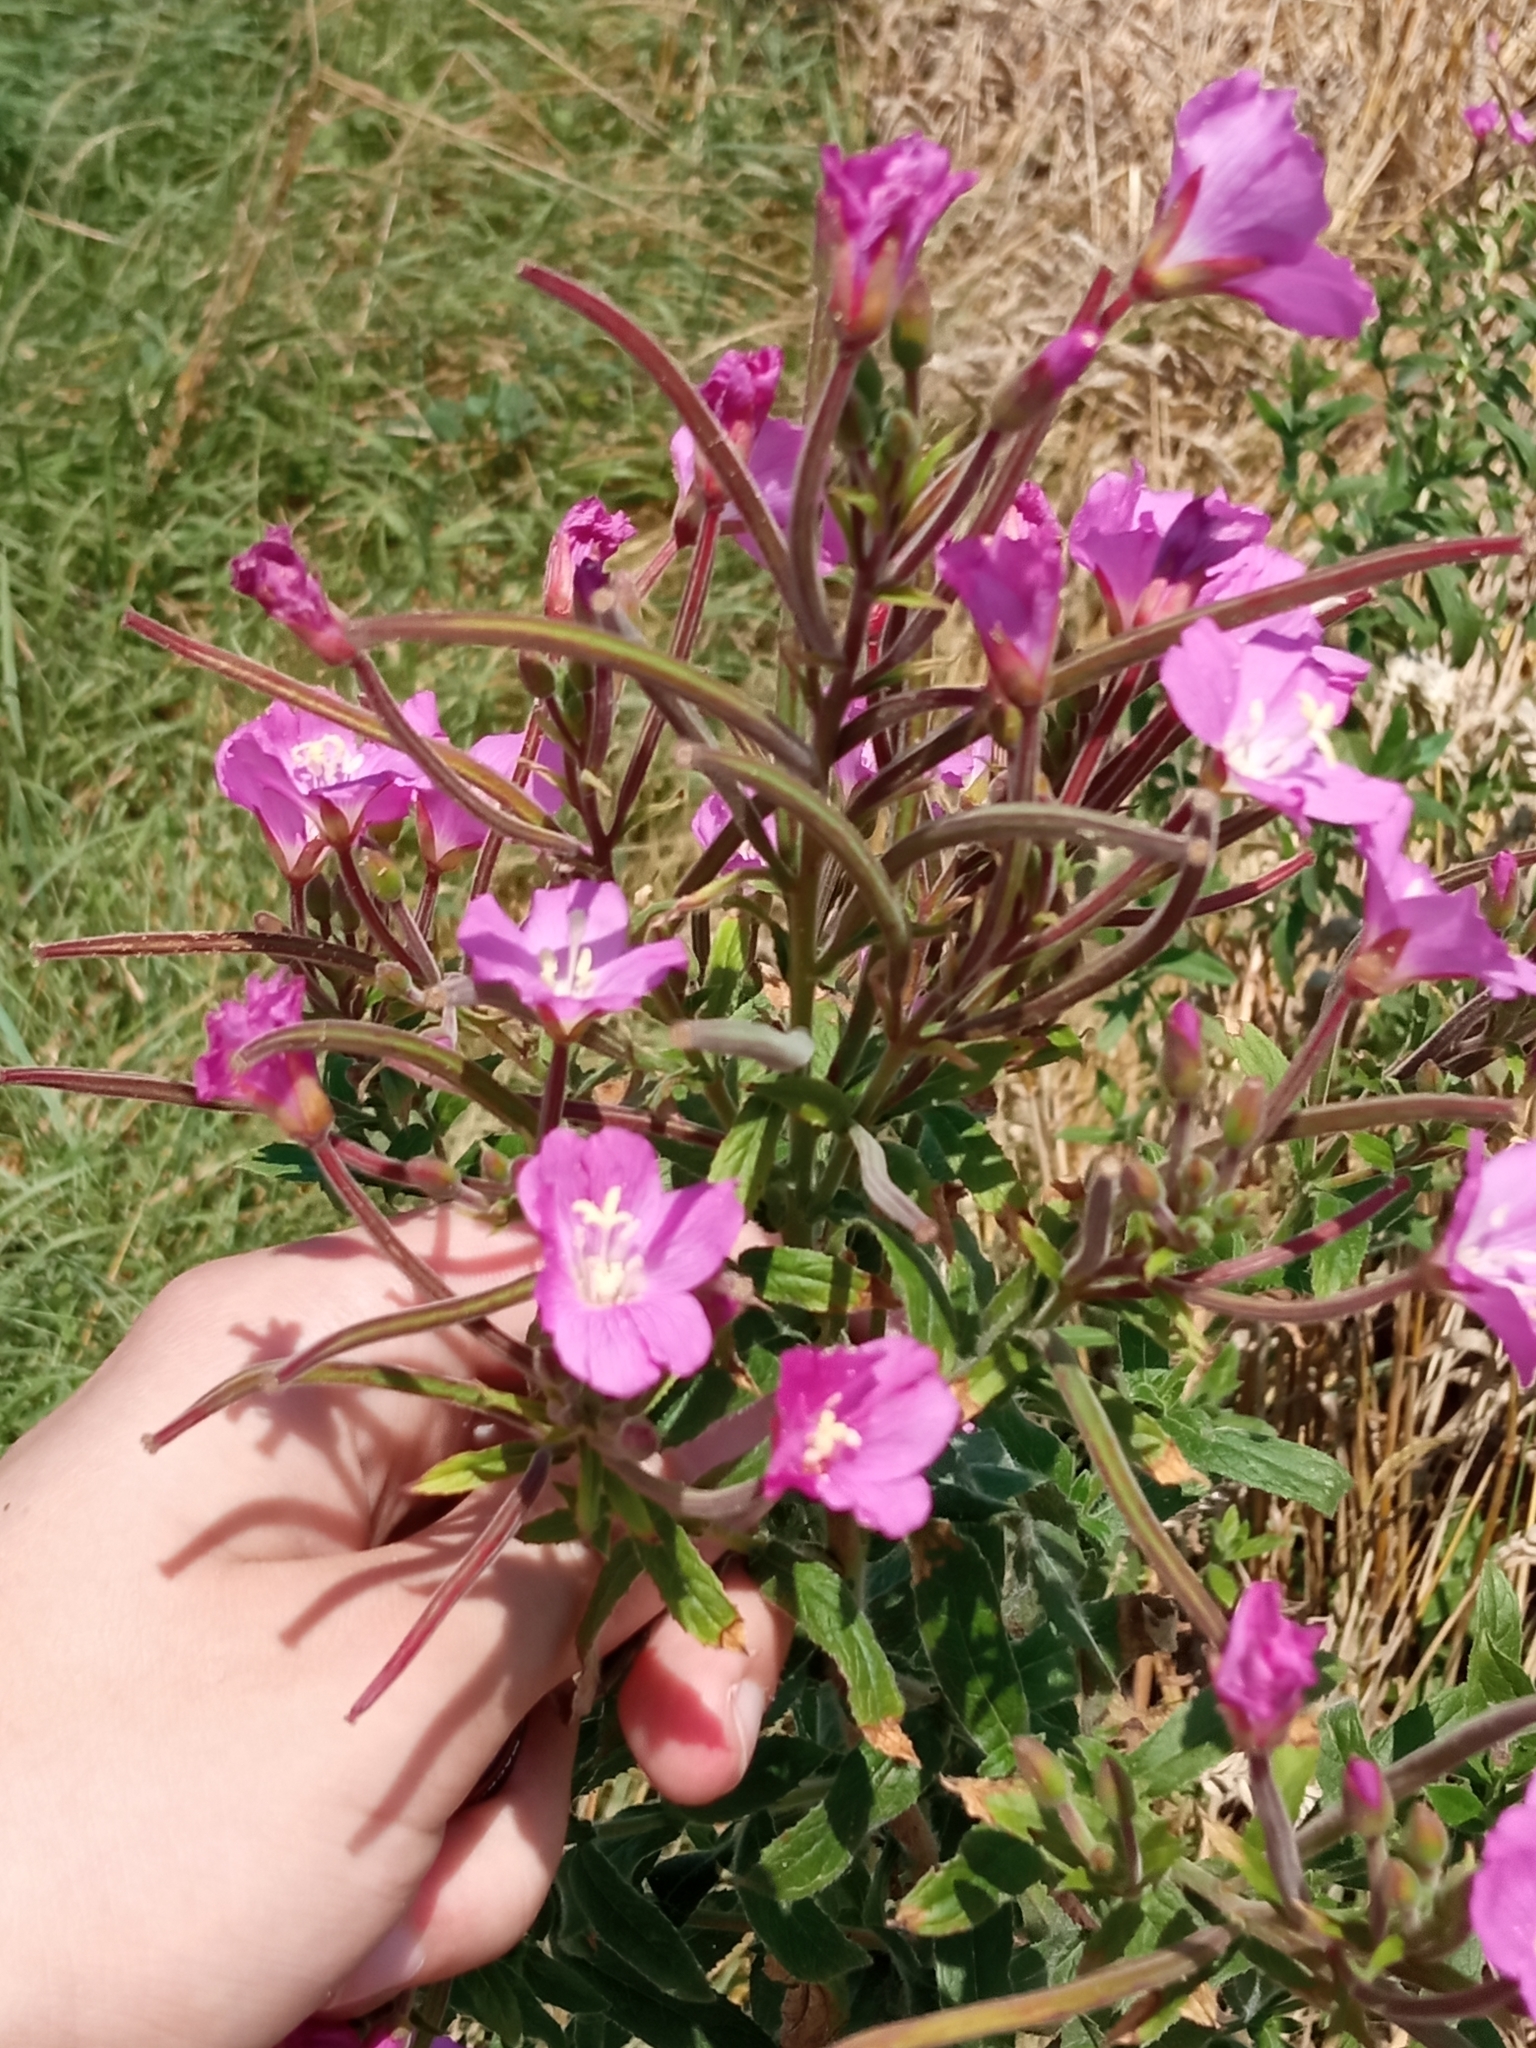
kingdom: Plantae
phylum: Tracheophyta
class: Magnoliopsida
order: Myrtales
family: Onagraceae
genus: Epilobium
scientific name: Epilobium hirsutum
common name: Great willowherb
